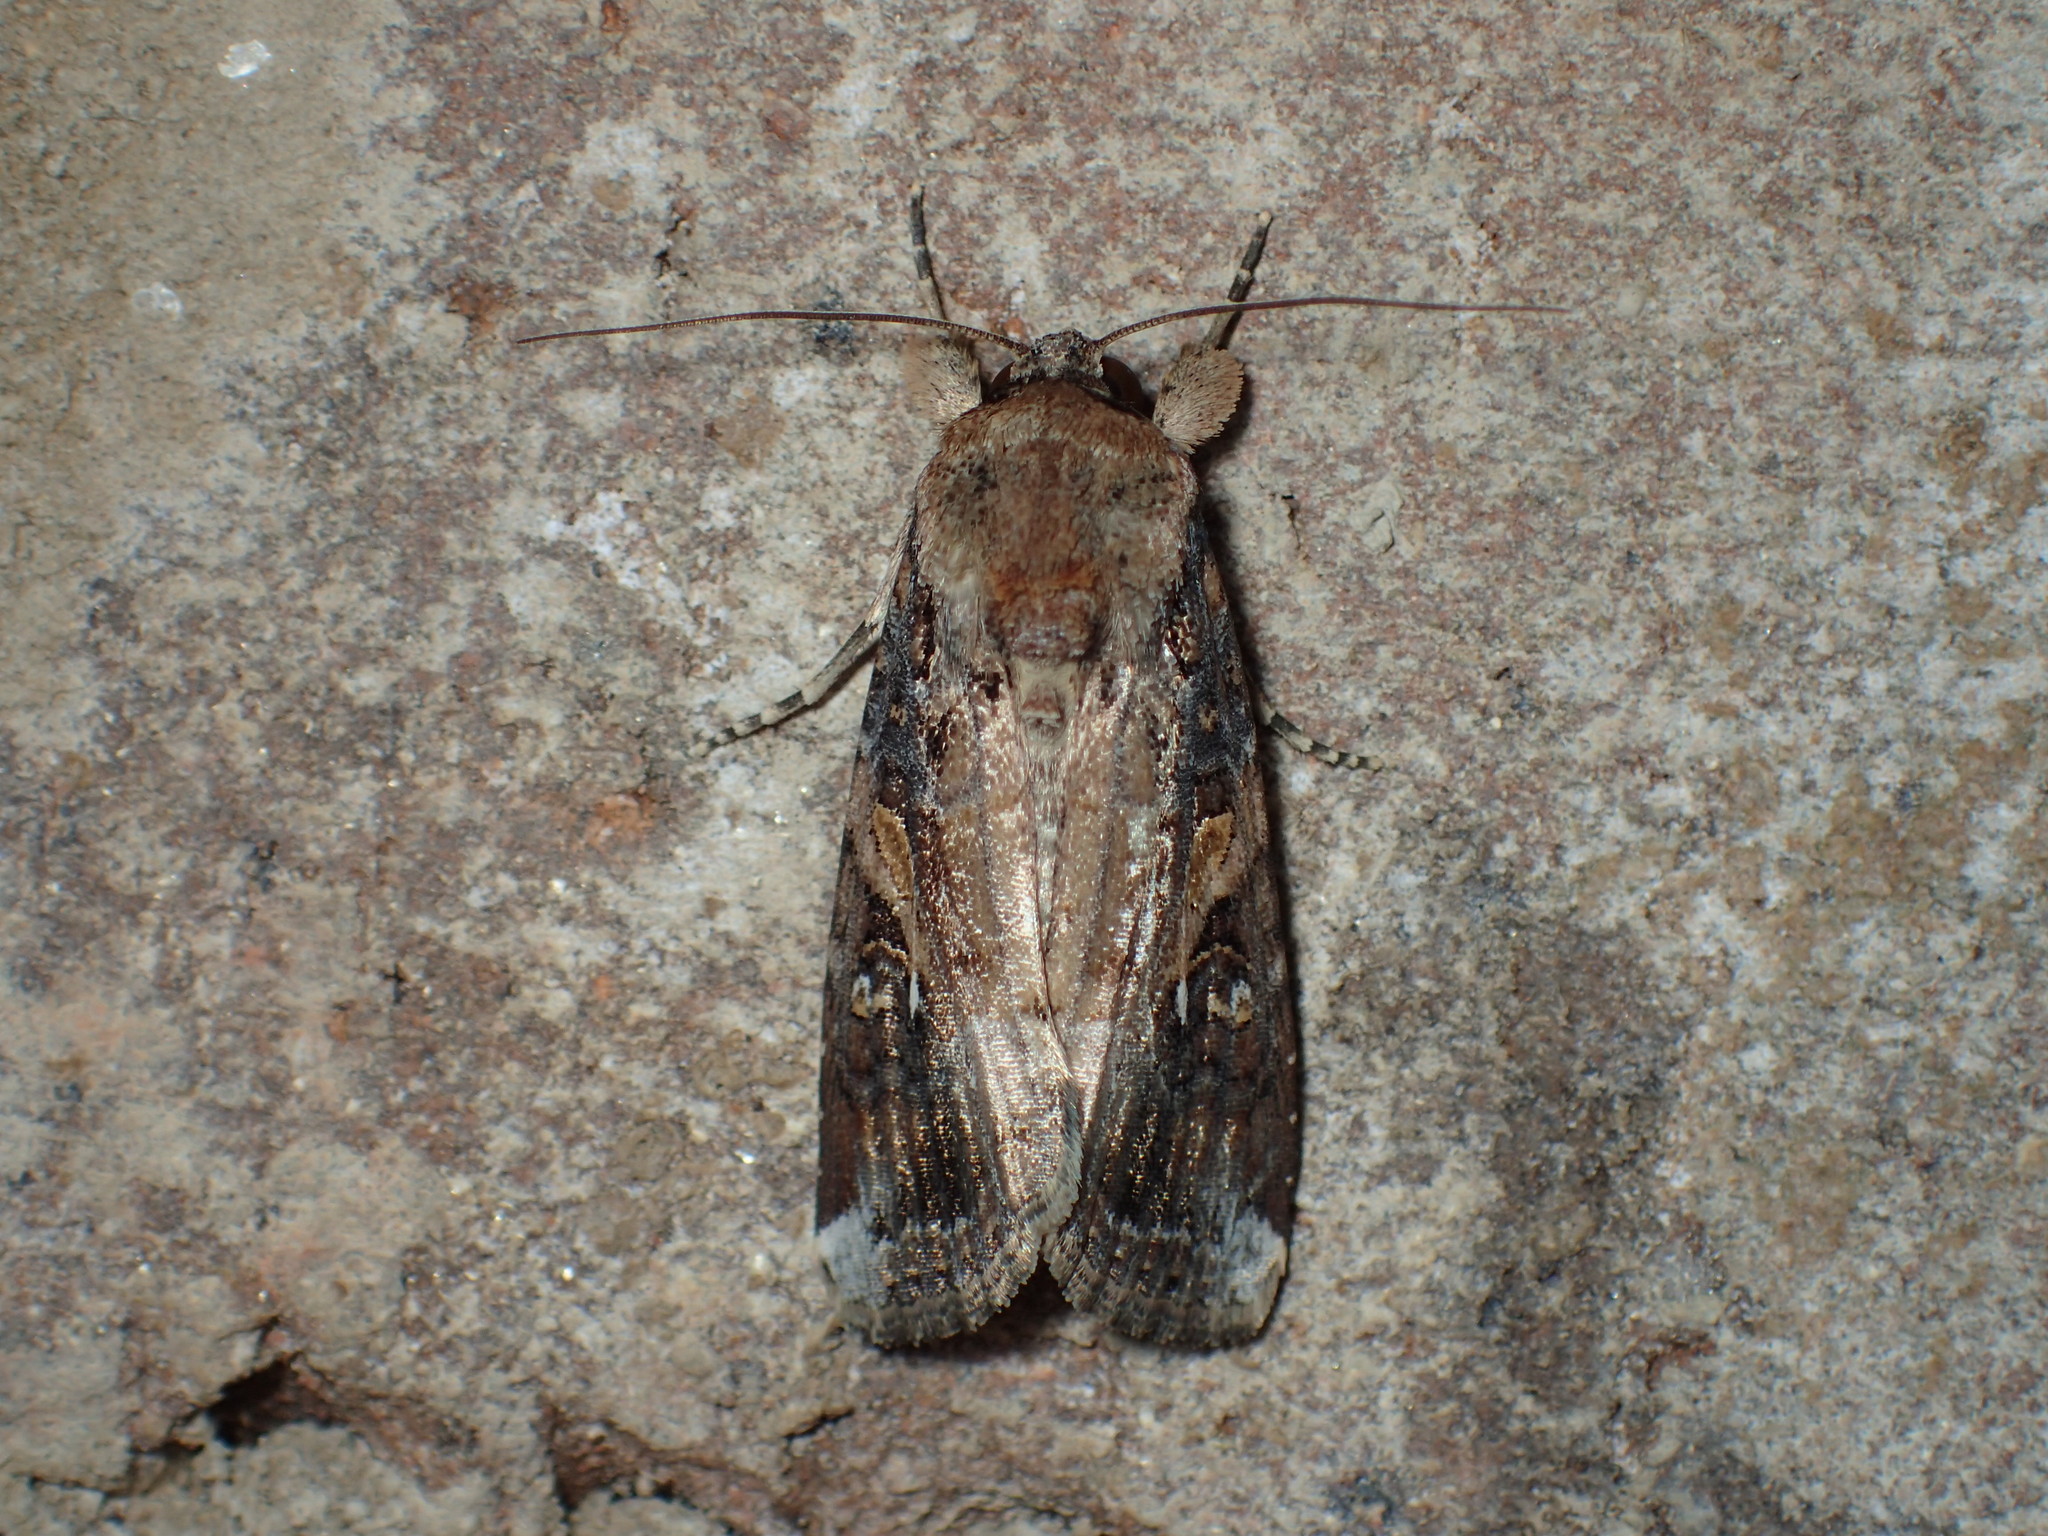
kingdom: Animalia
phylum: Arthropoda
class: Insecta
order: Lepidoptera
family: Noctuidae
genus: Spodoptera
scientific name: Spodoptera frugiperda
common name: Fall armyworm
